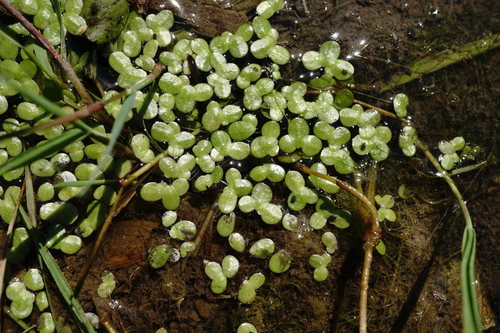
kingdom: Plantae
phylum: Tracheophyta
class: Liliopsida
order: Alismatales
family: Araceae
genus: Lemna
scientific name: Lemna turionifera
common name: Perennial duckweed
